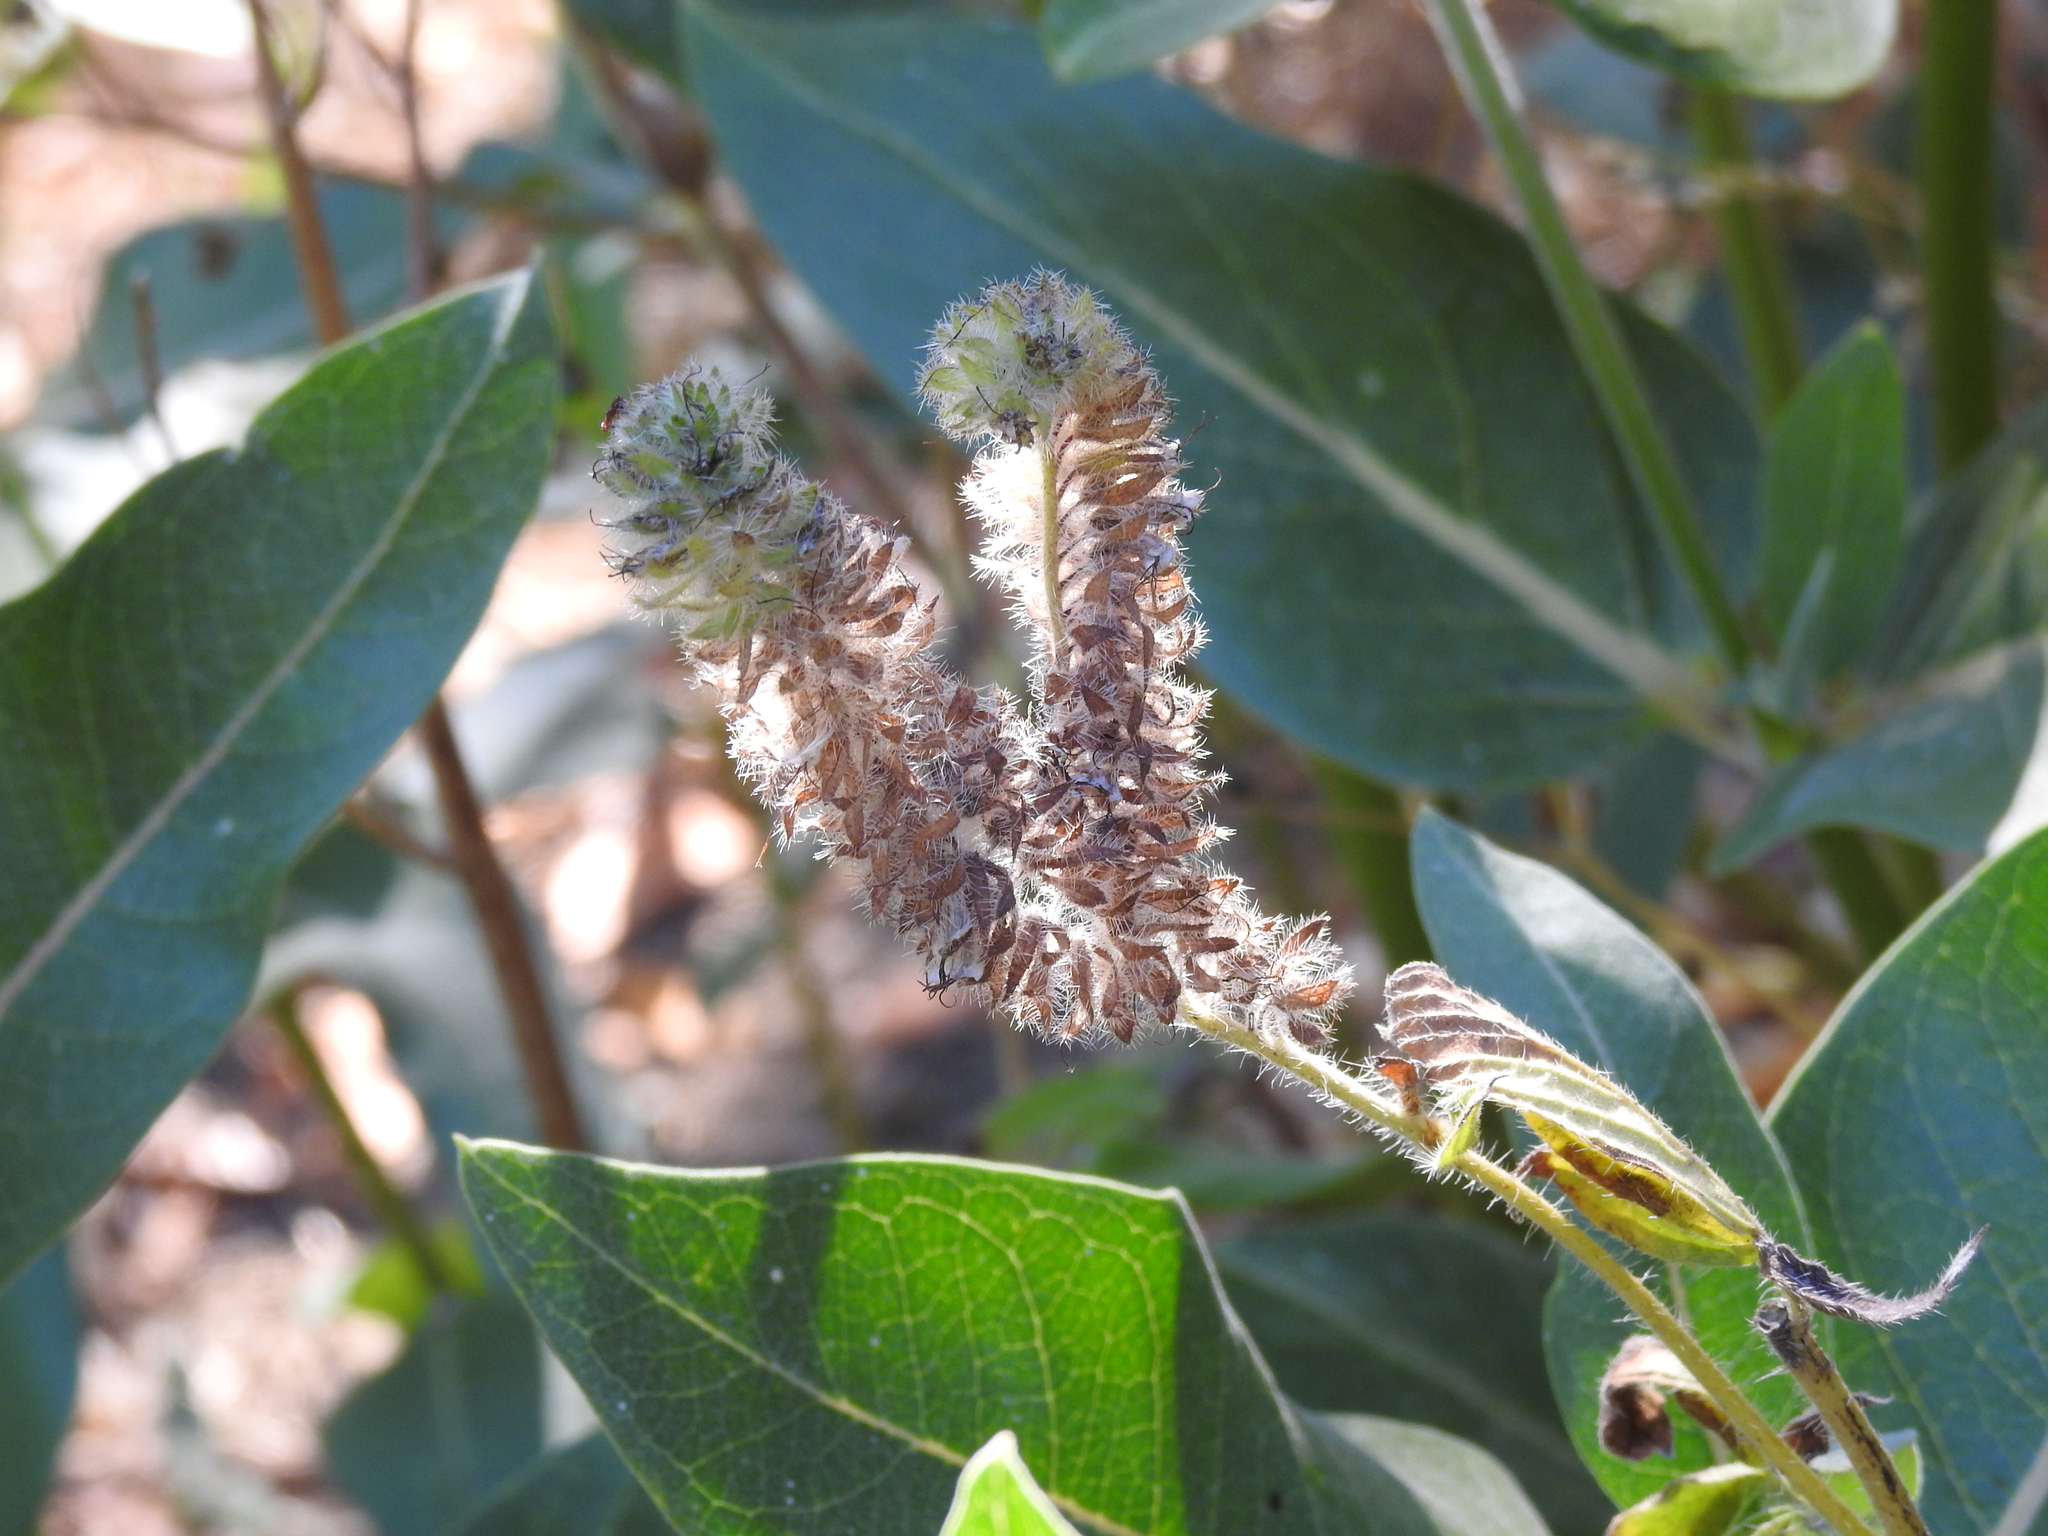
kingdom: Plantae
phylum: Tracheophyta
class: Magnoliopsida
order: Boraginales
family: Hydrophyllaceae
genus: Phacelia
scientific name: Phacelia californica
